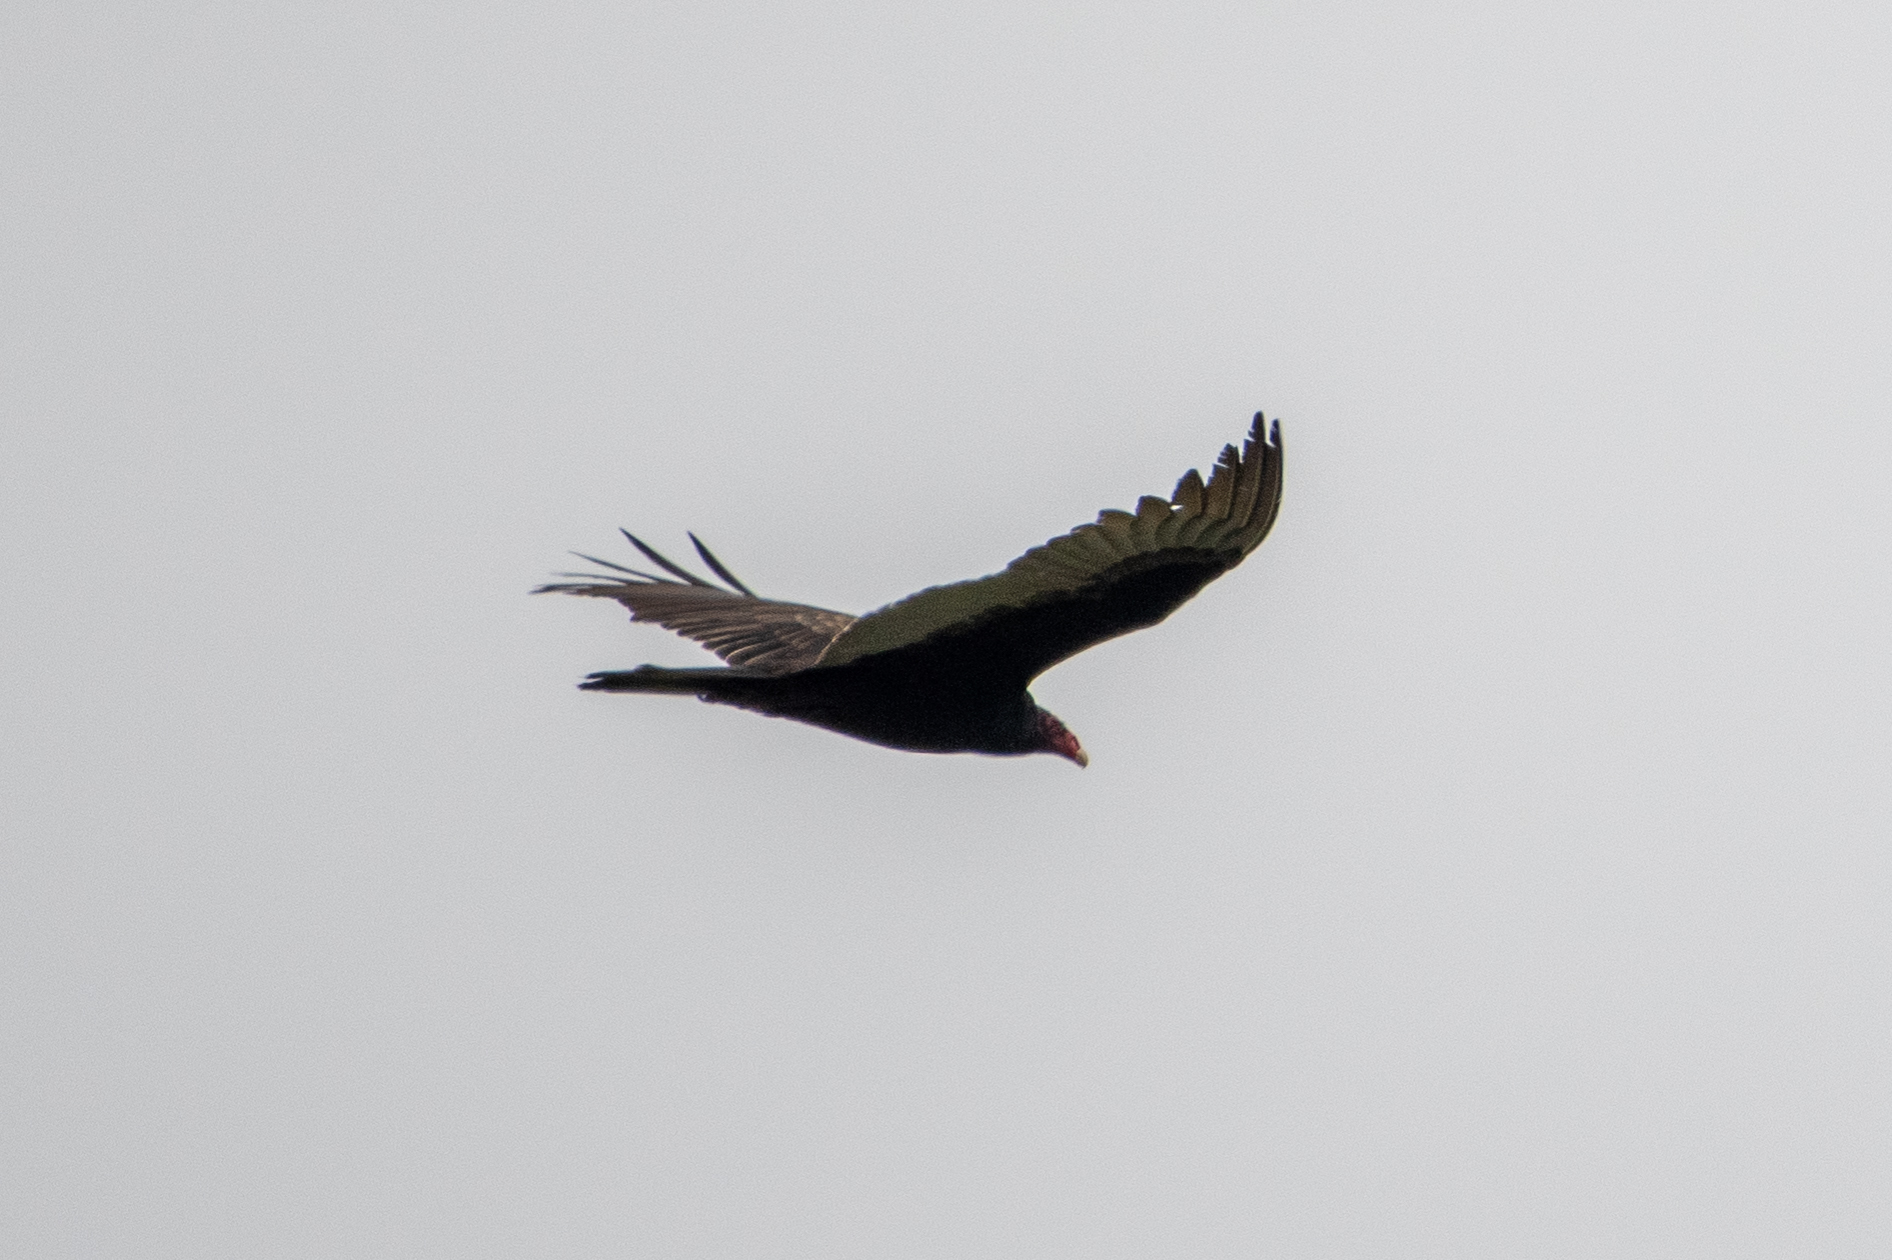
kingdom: Animalia
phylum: Chordata
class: Aves
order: Accipitriformes
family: Cathartidae
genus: Cathartes
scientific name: Cathartes aura
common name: Turkey vulture
